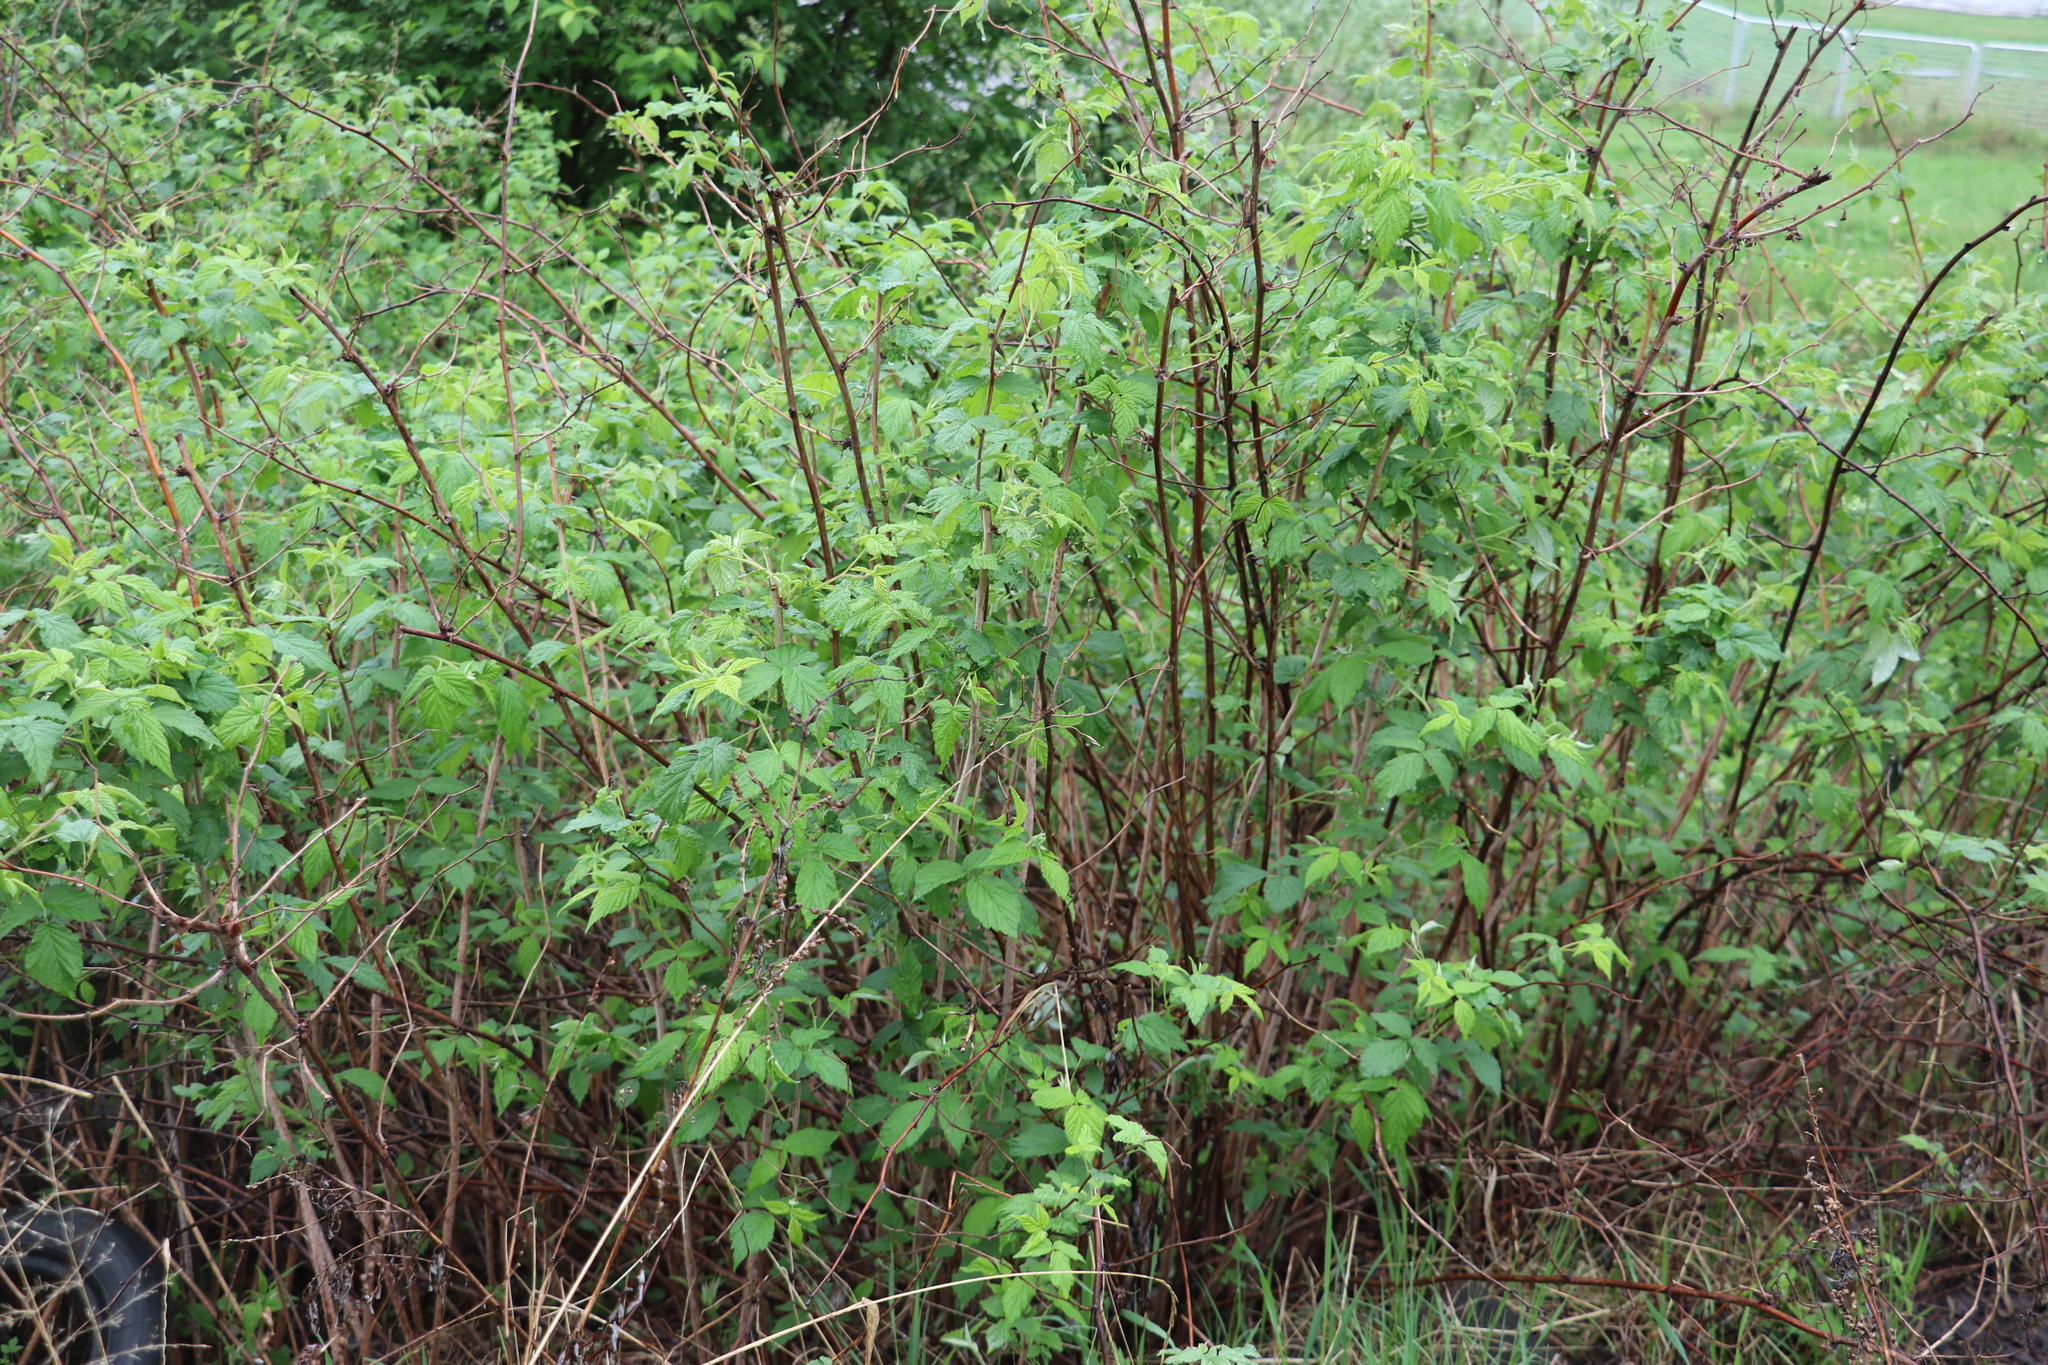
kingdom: Plantae
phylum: Tracheophyta
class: Magnoliopsida
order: Rosales
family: Rosaceae
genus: Rubus
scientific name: Rubus sachalinensis
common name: Red raspberry
